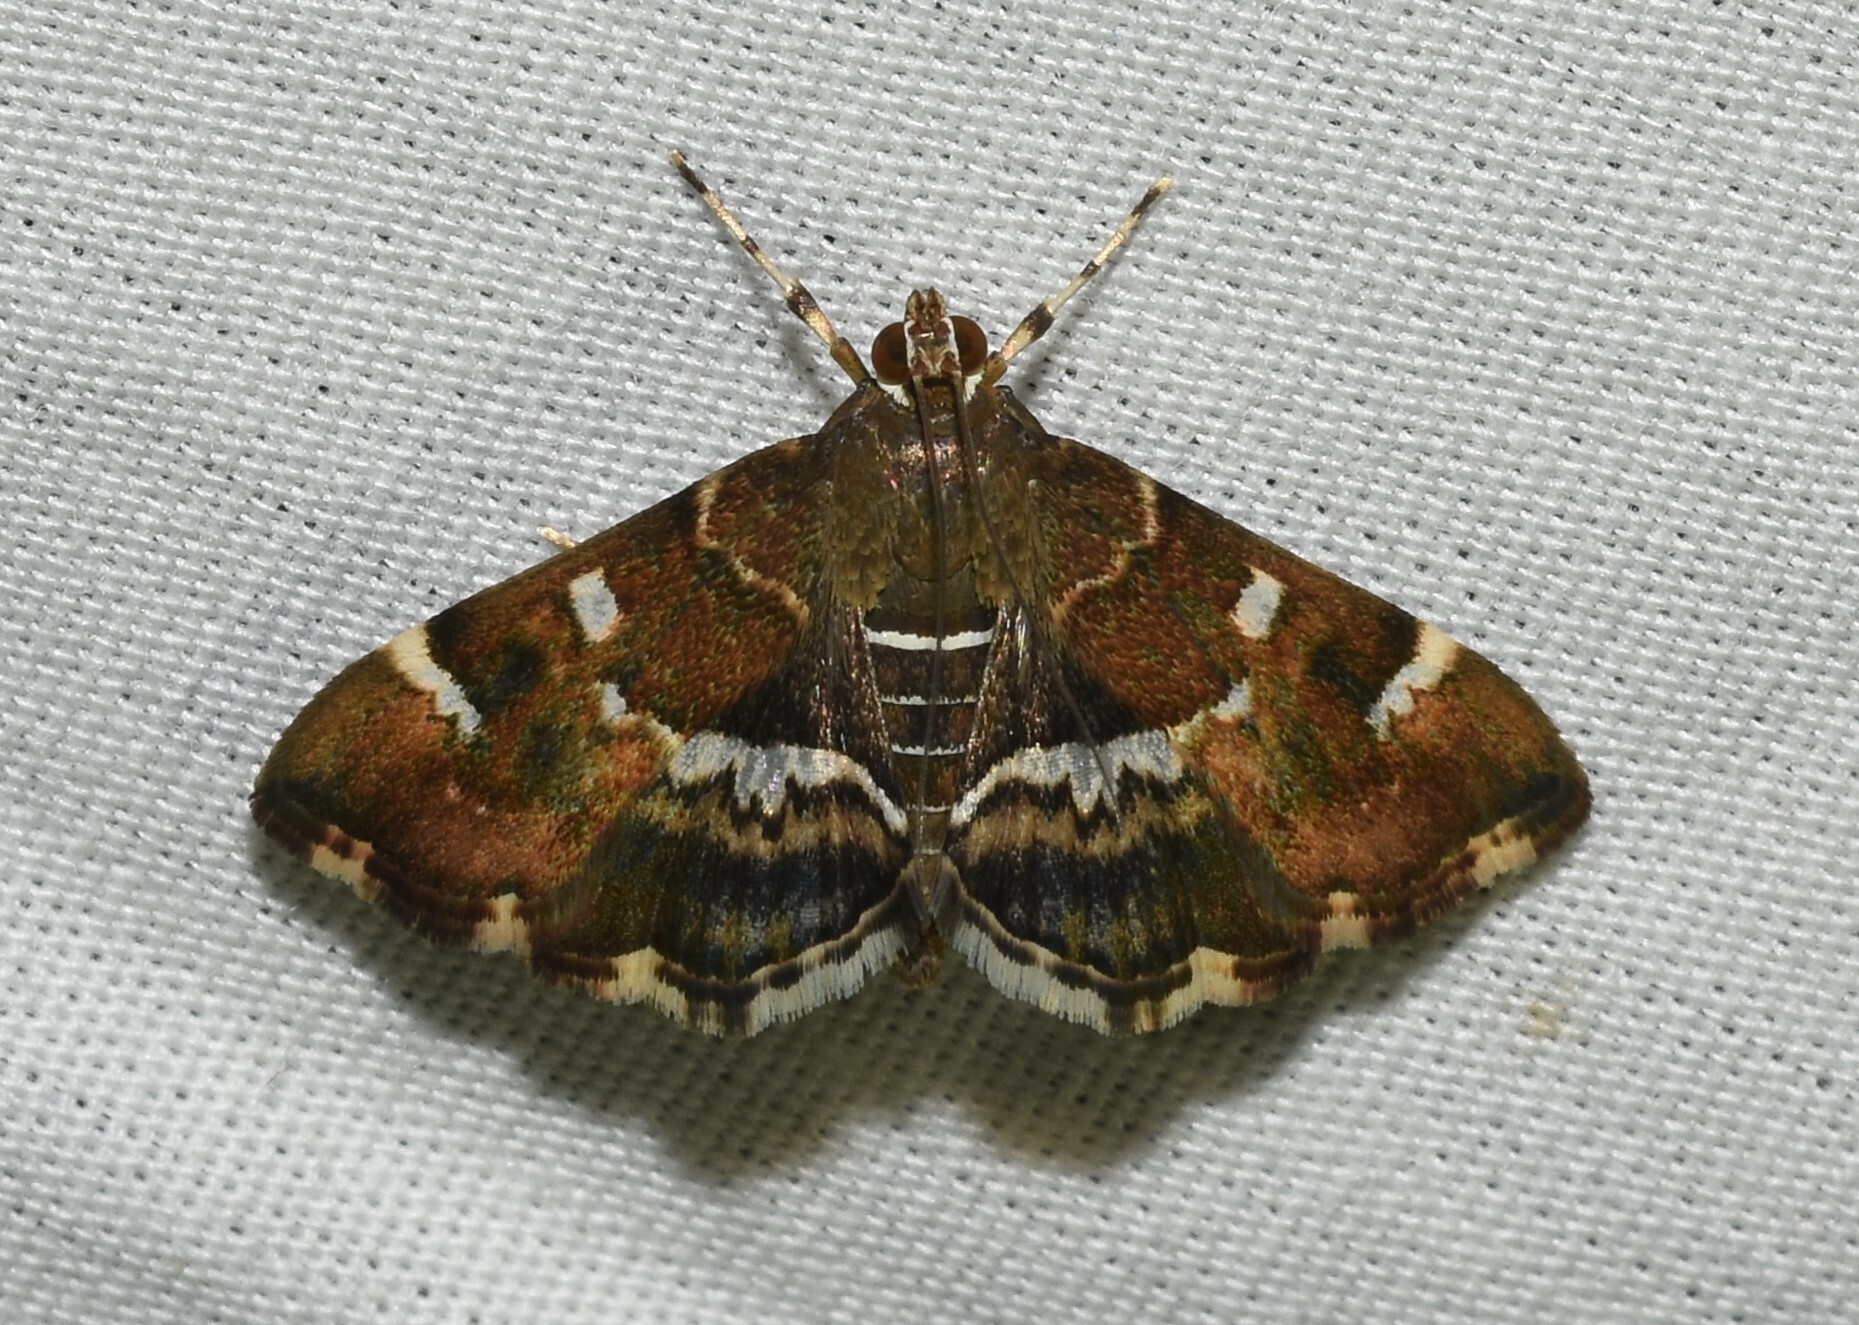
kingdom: Animalia
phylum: Arthropoda
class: Insecta
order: Lepidoptera
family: Crambidae
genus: Hymenia
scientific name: Hymenia perspectalis
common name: Spotted beet webworm
